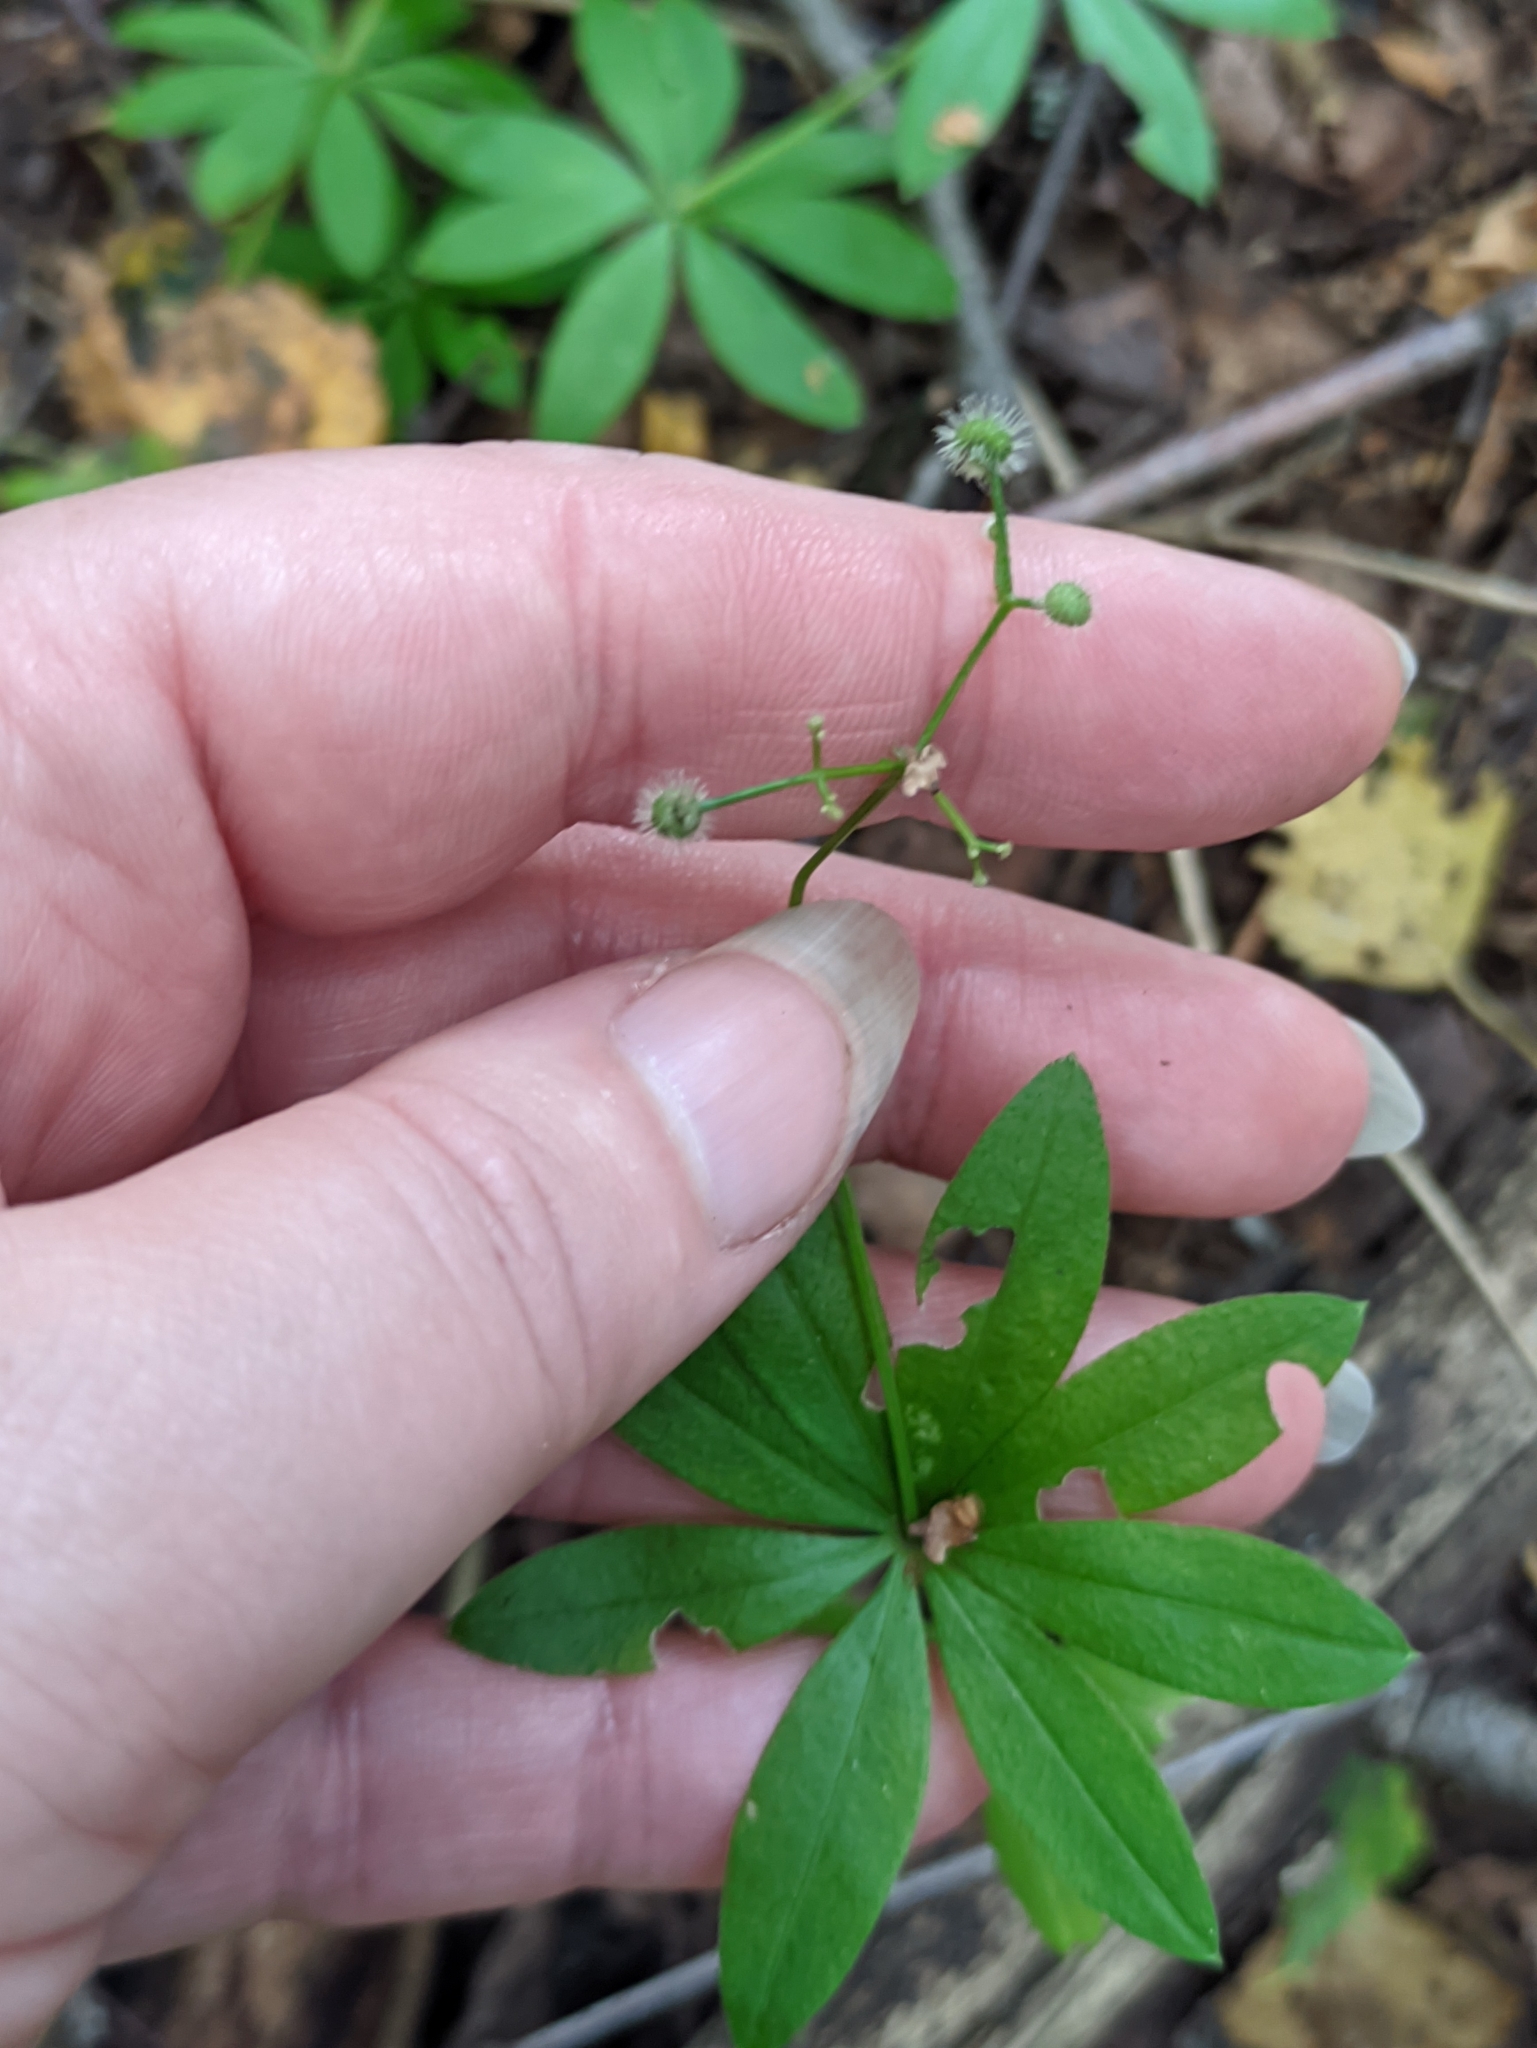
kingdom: Plantae
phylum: Tracheophyta
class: Magnoliopsida
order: Gentianales
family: Rubiaceae
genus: Galium
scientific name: Galium odoratum
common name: Sweet woodruff
